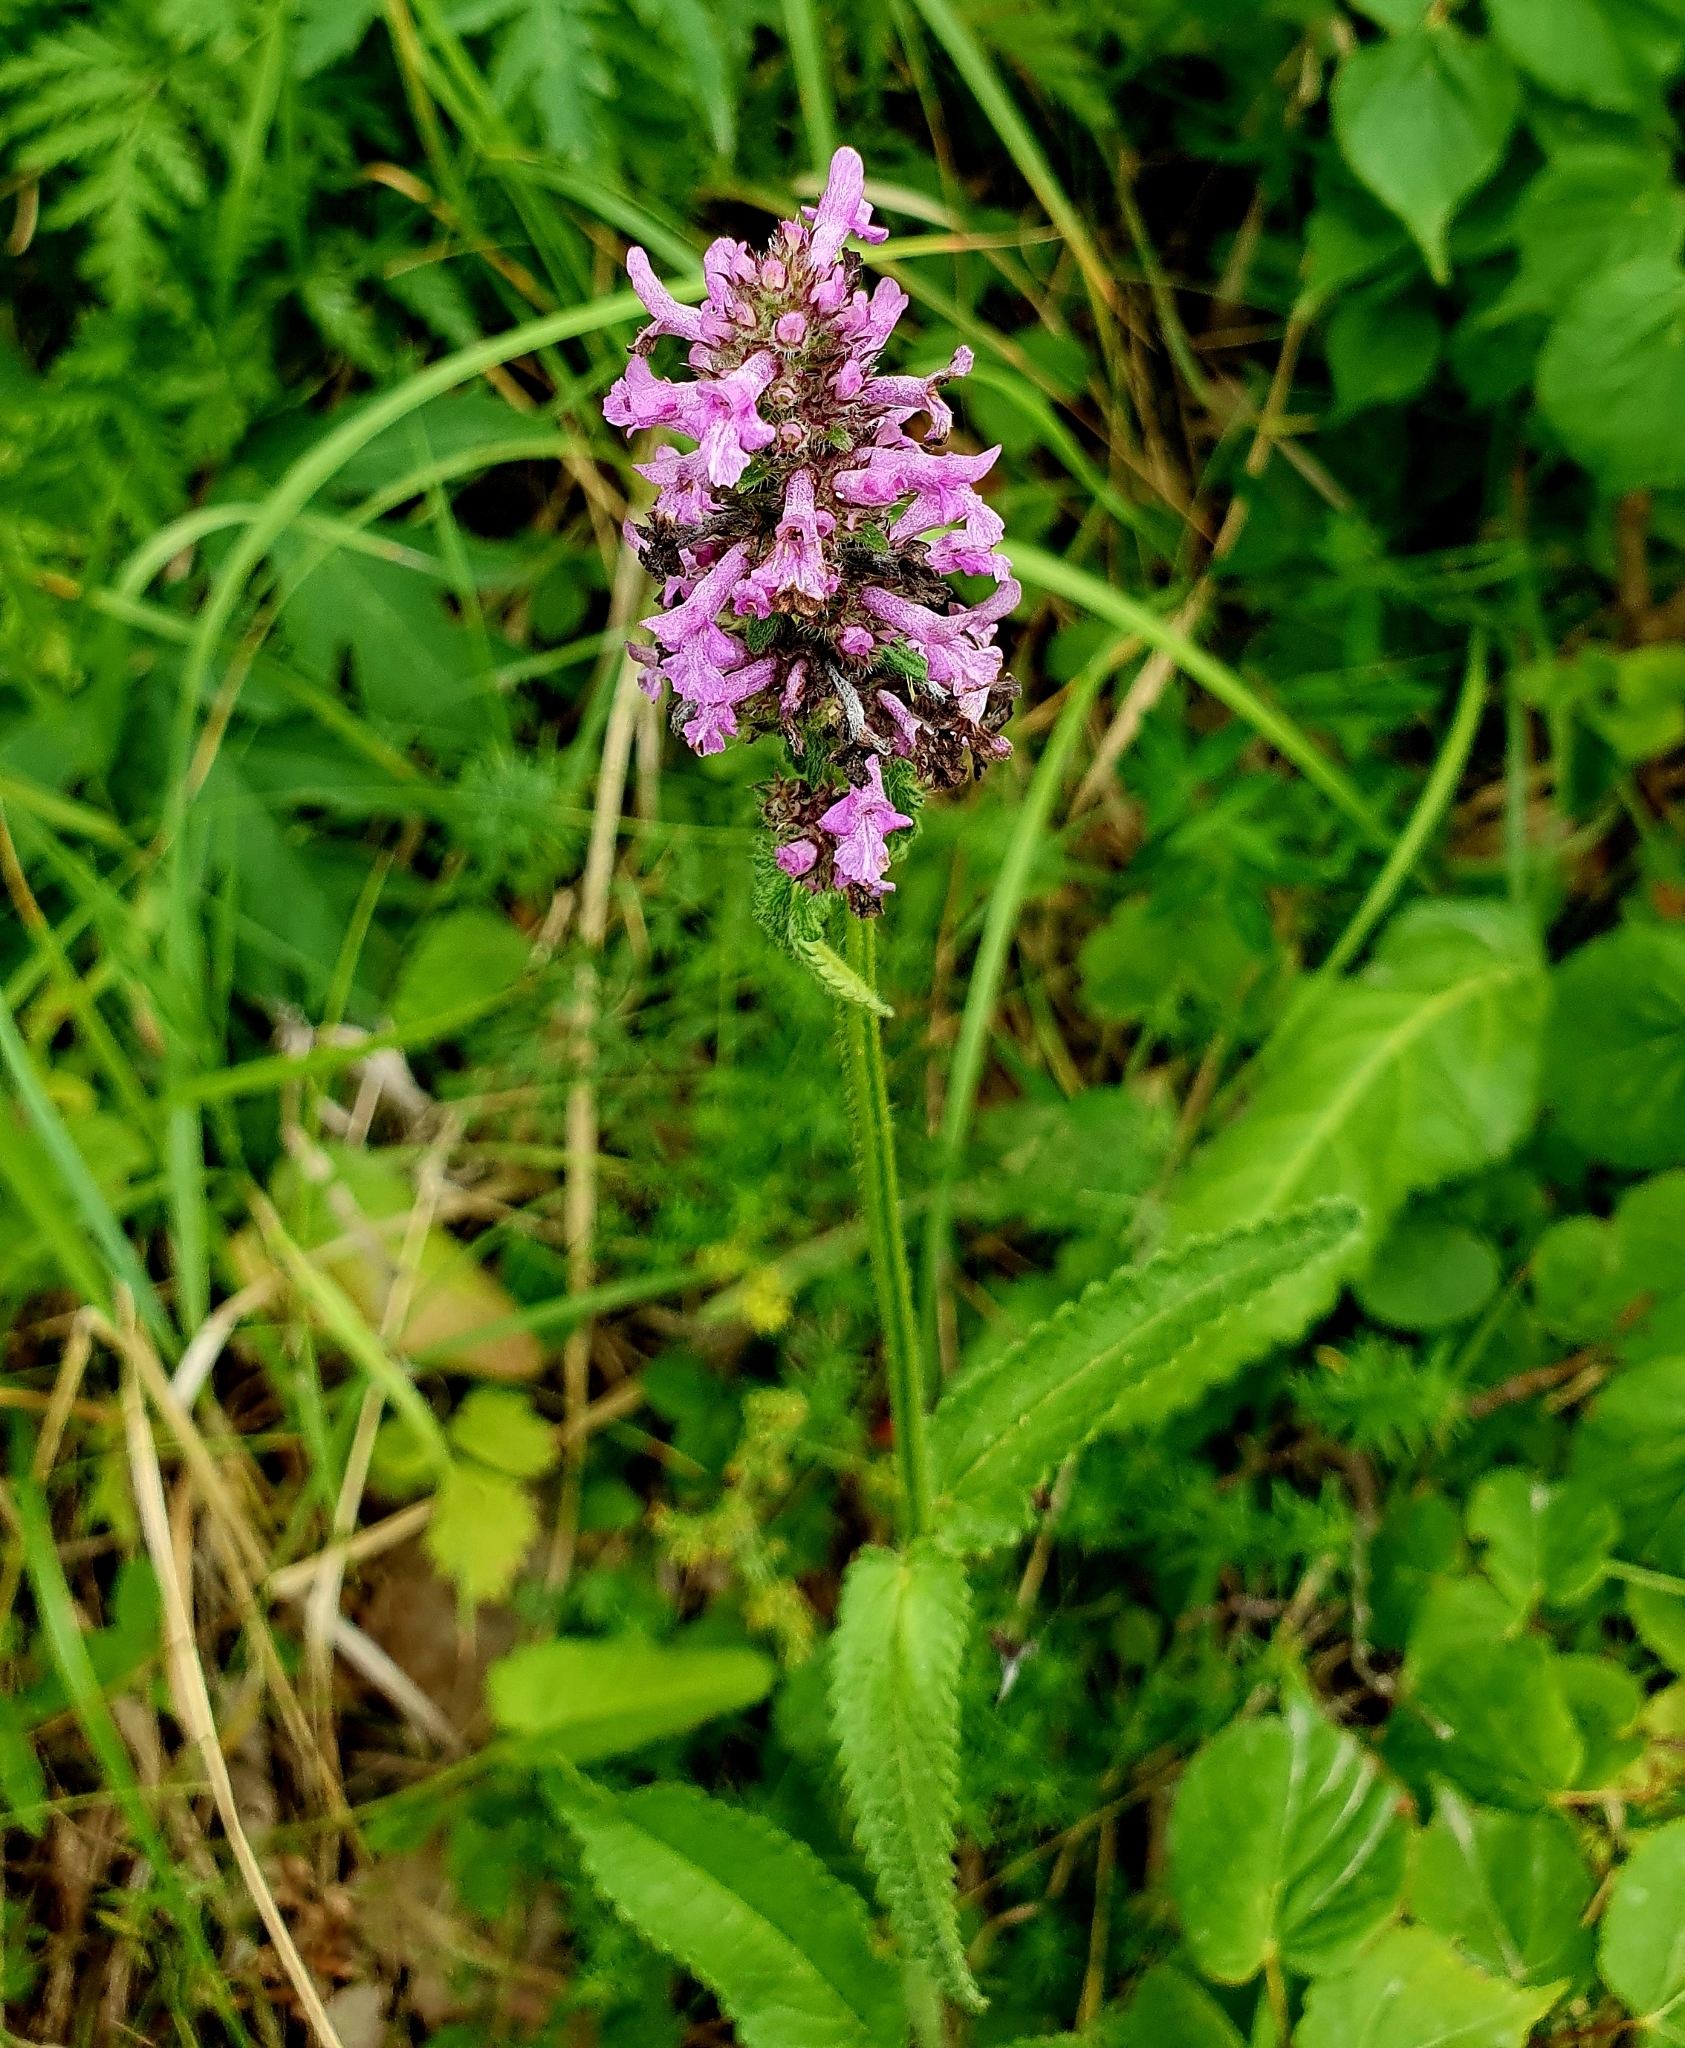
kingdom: Plantae
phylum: Tracheophyta
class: Magnoliopsida
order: Lamiales
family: Lamiaceae
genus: Betonica
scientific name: Betonica officinalis
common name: Bishop's-wort
